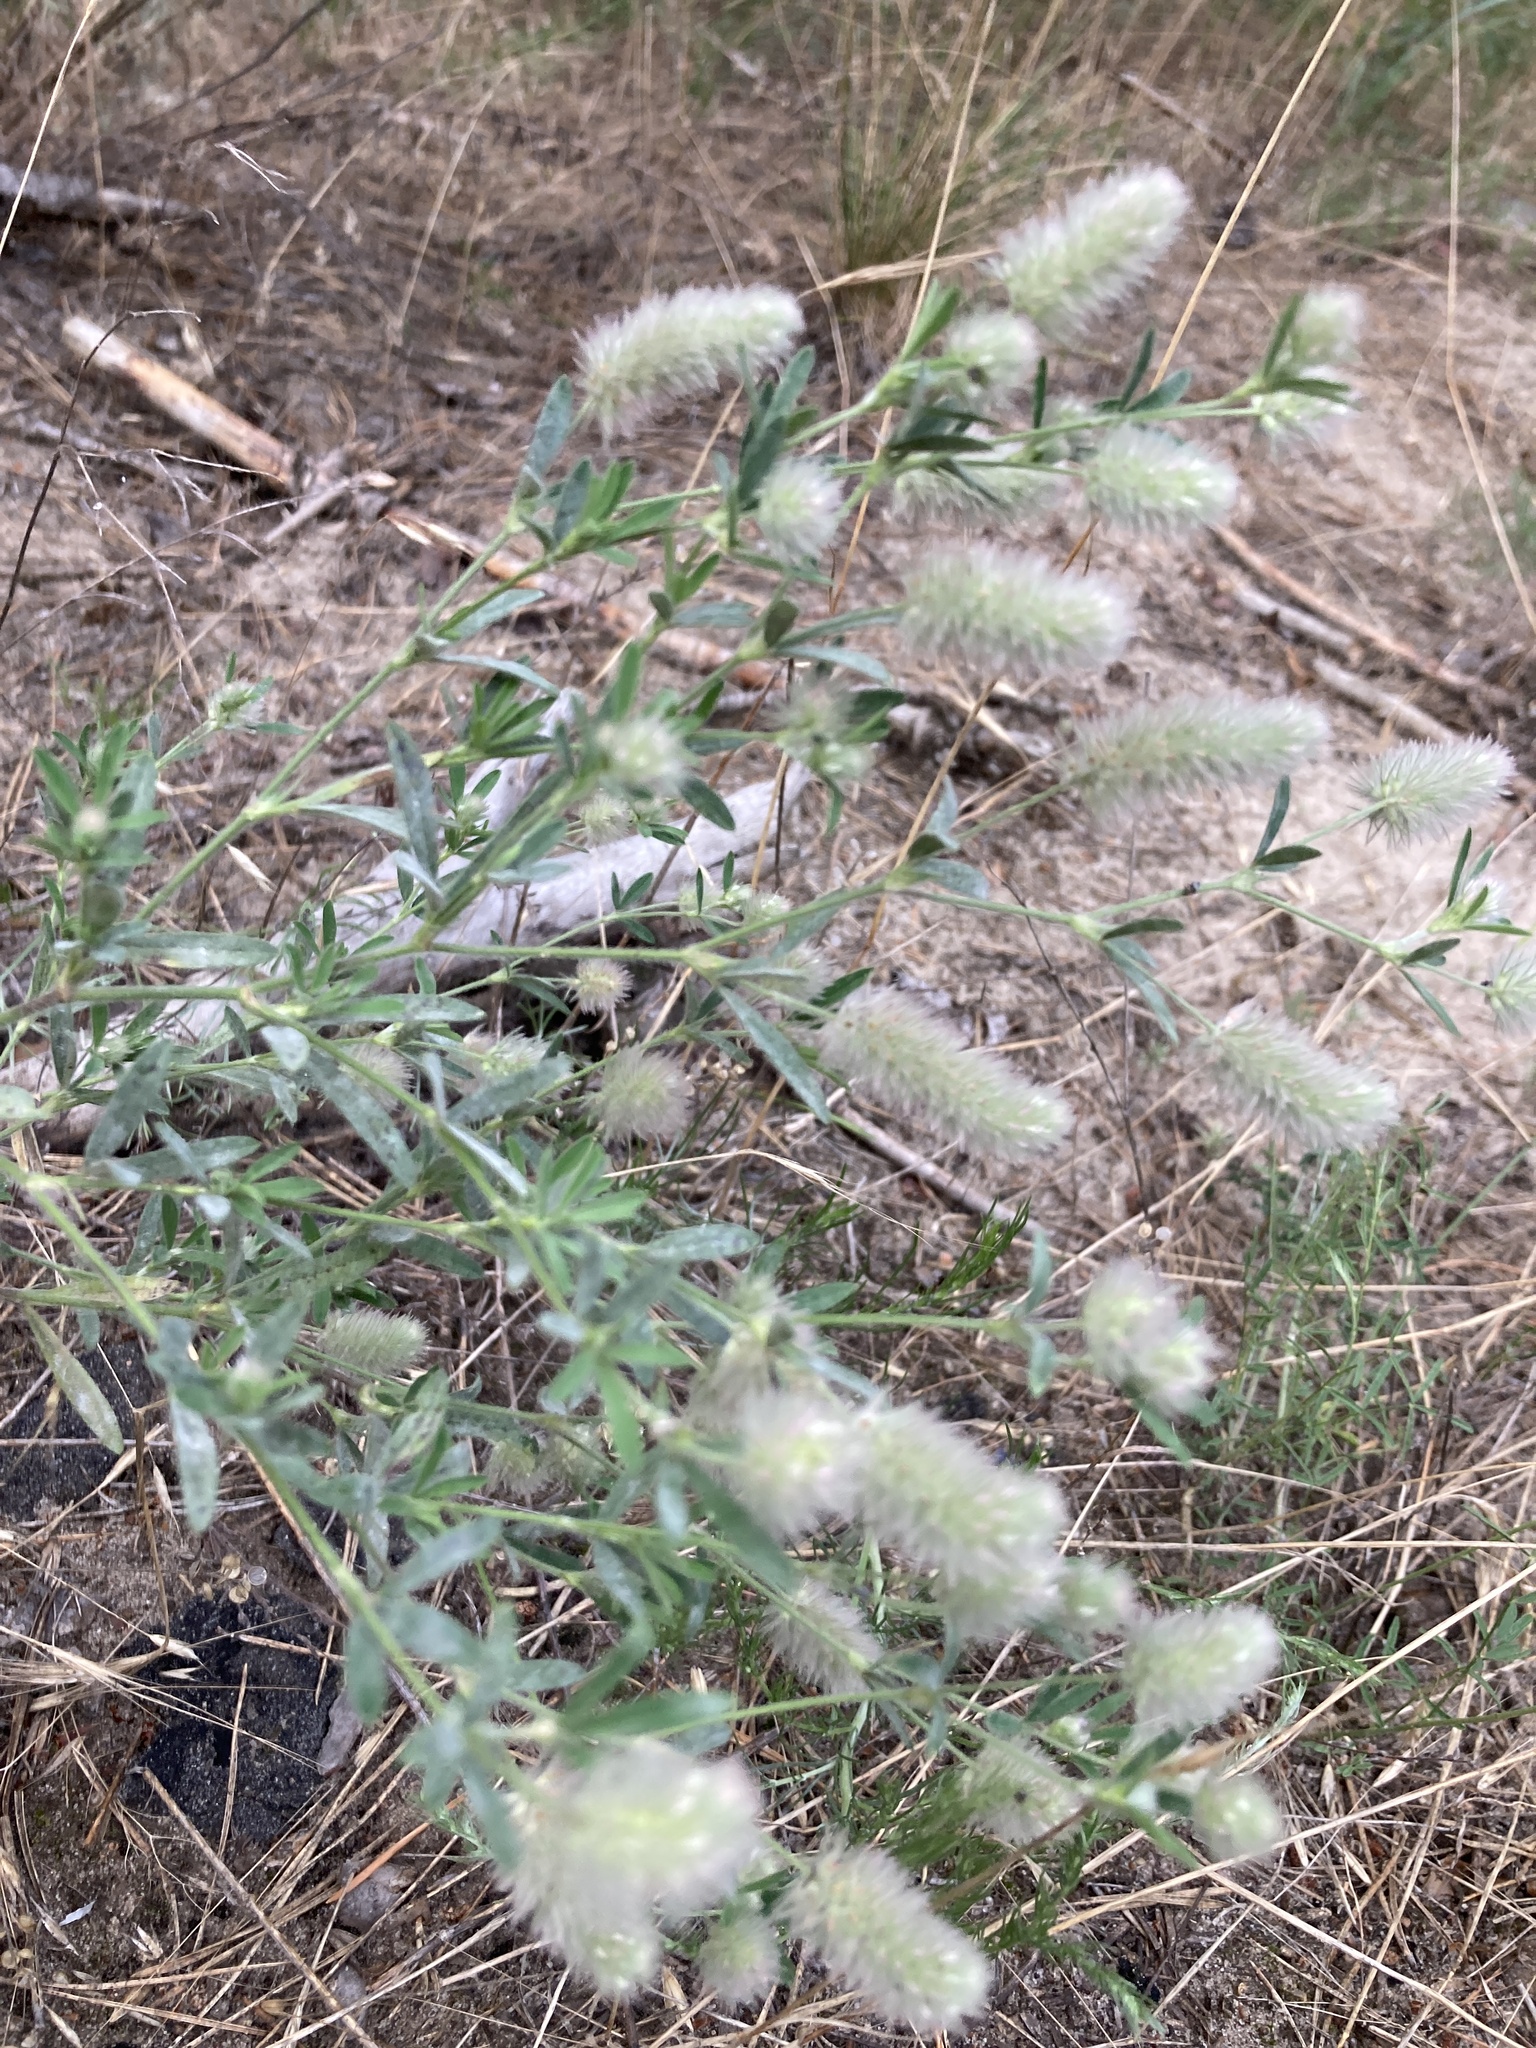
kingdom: Plantae
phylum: Tracheophyta
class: Magnoliopsida
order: Fabales
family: Fabaceae
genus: Trifolium
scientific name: Trifolium arvense
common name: Hare's-foot clover
